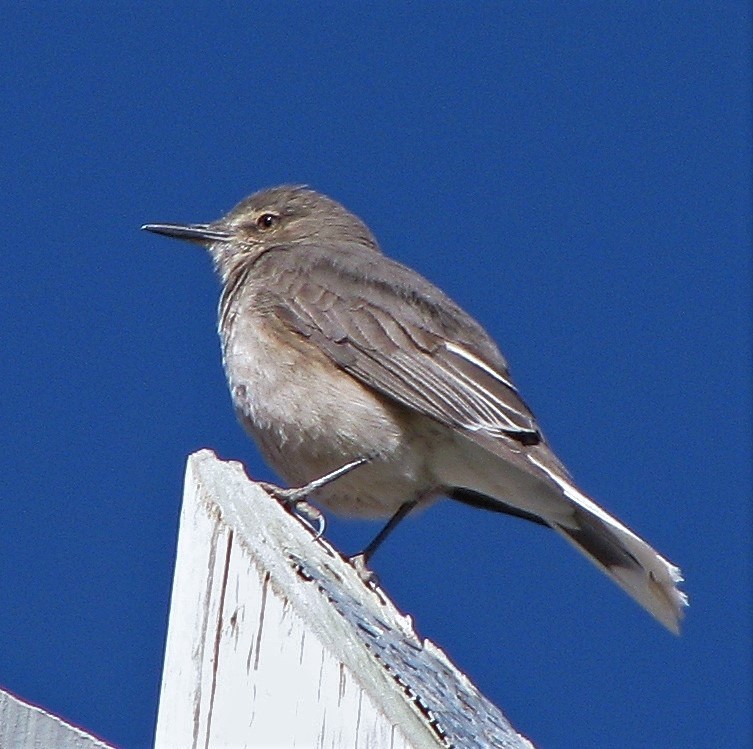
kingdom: Animalia
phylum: Chordata
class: Aves
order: Passeriformes
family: Tyrannidae
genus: Agriornis
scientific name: Agriornis montanus
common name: Black-billed shrike-tyrant
